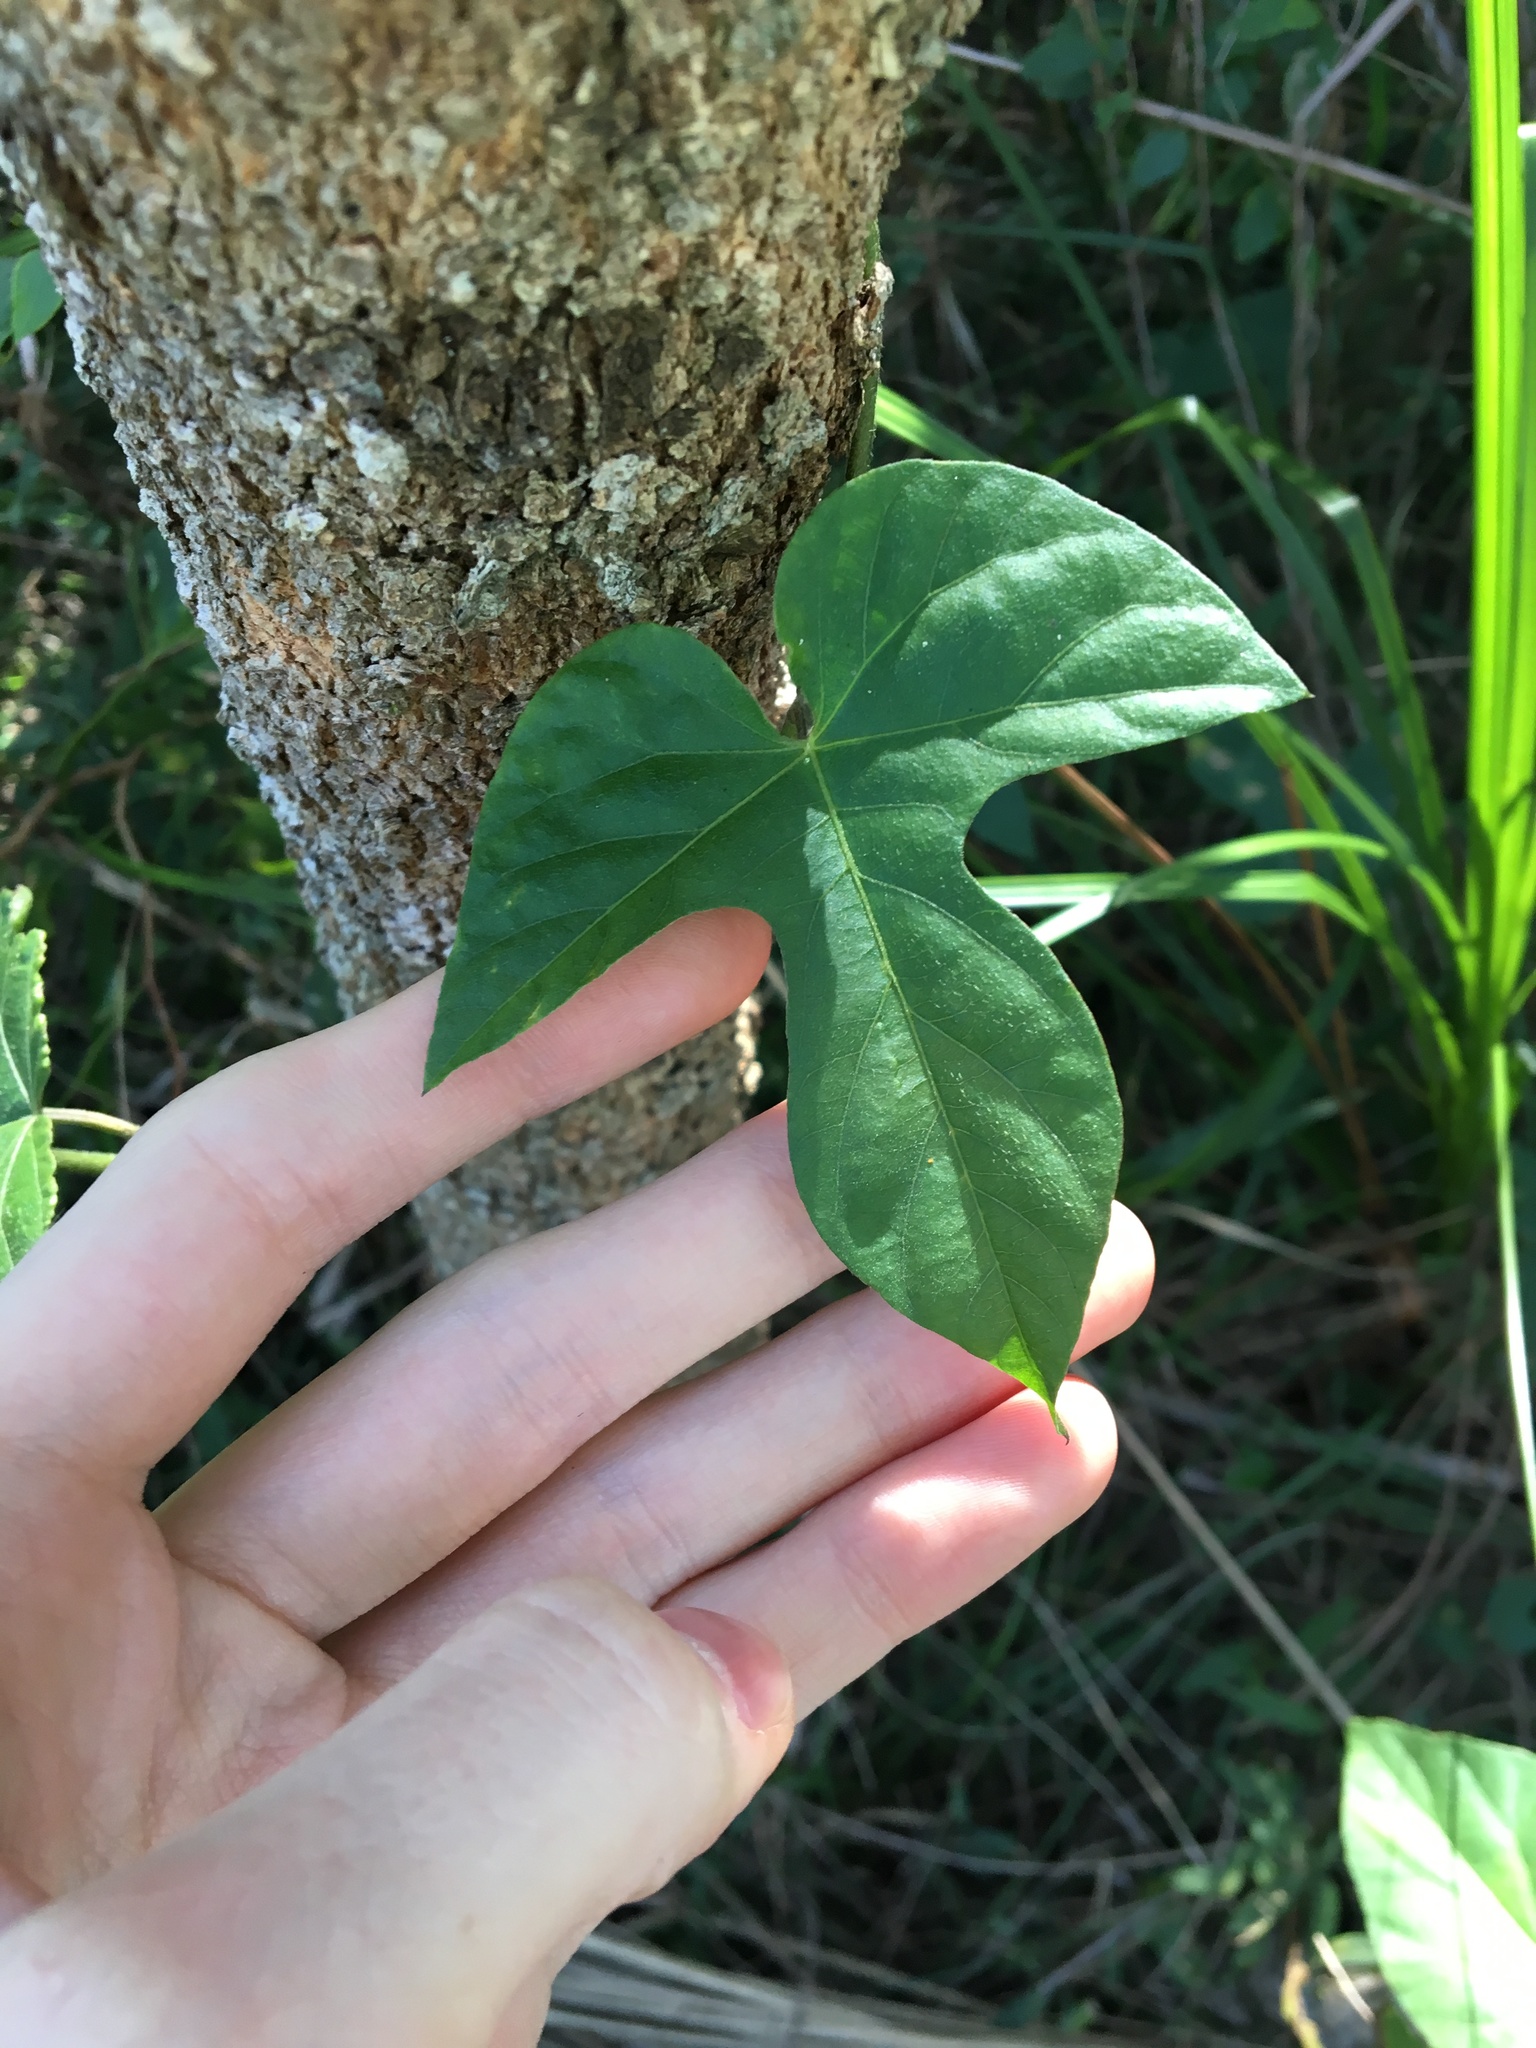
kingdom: Plantae
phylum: Tracheophyta
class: Magnoliopsida
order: Solanales
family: Convolvulaceae
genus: Ipomoea
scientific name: Ipomoea indica
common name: Blue dawnflower
